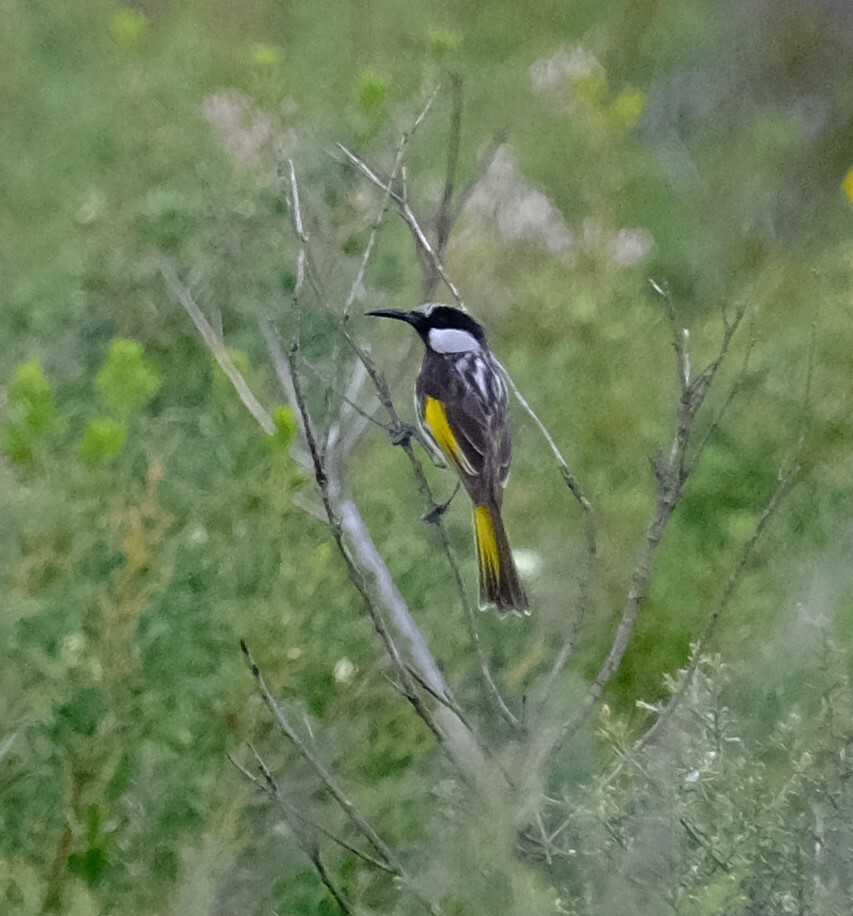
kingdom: Animalia
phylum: Chordata
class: Aves
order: Passeriformes
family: Meliphagidae
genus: Phylidonyris
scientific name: Phylidonyris niger
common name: White-cheeked honeyeater
